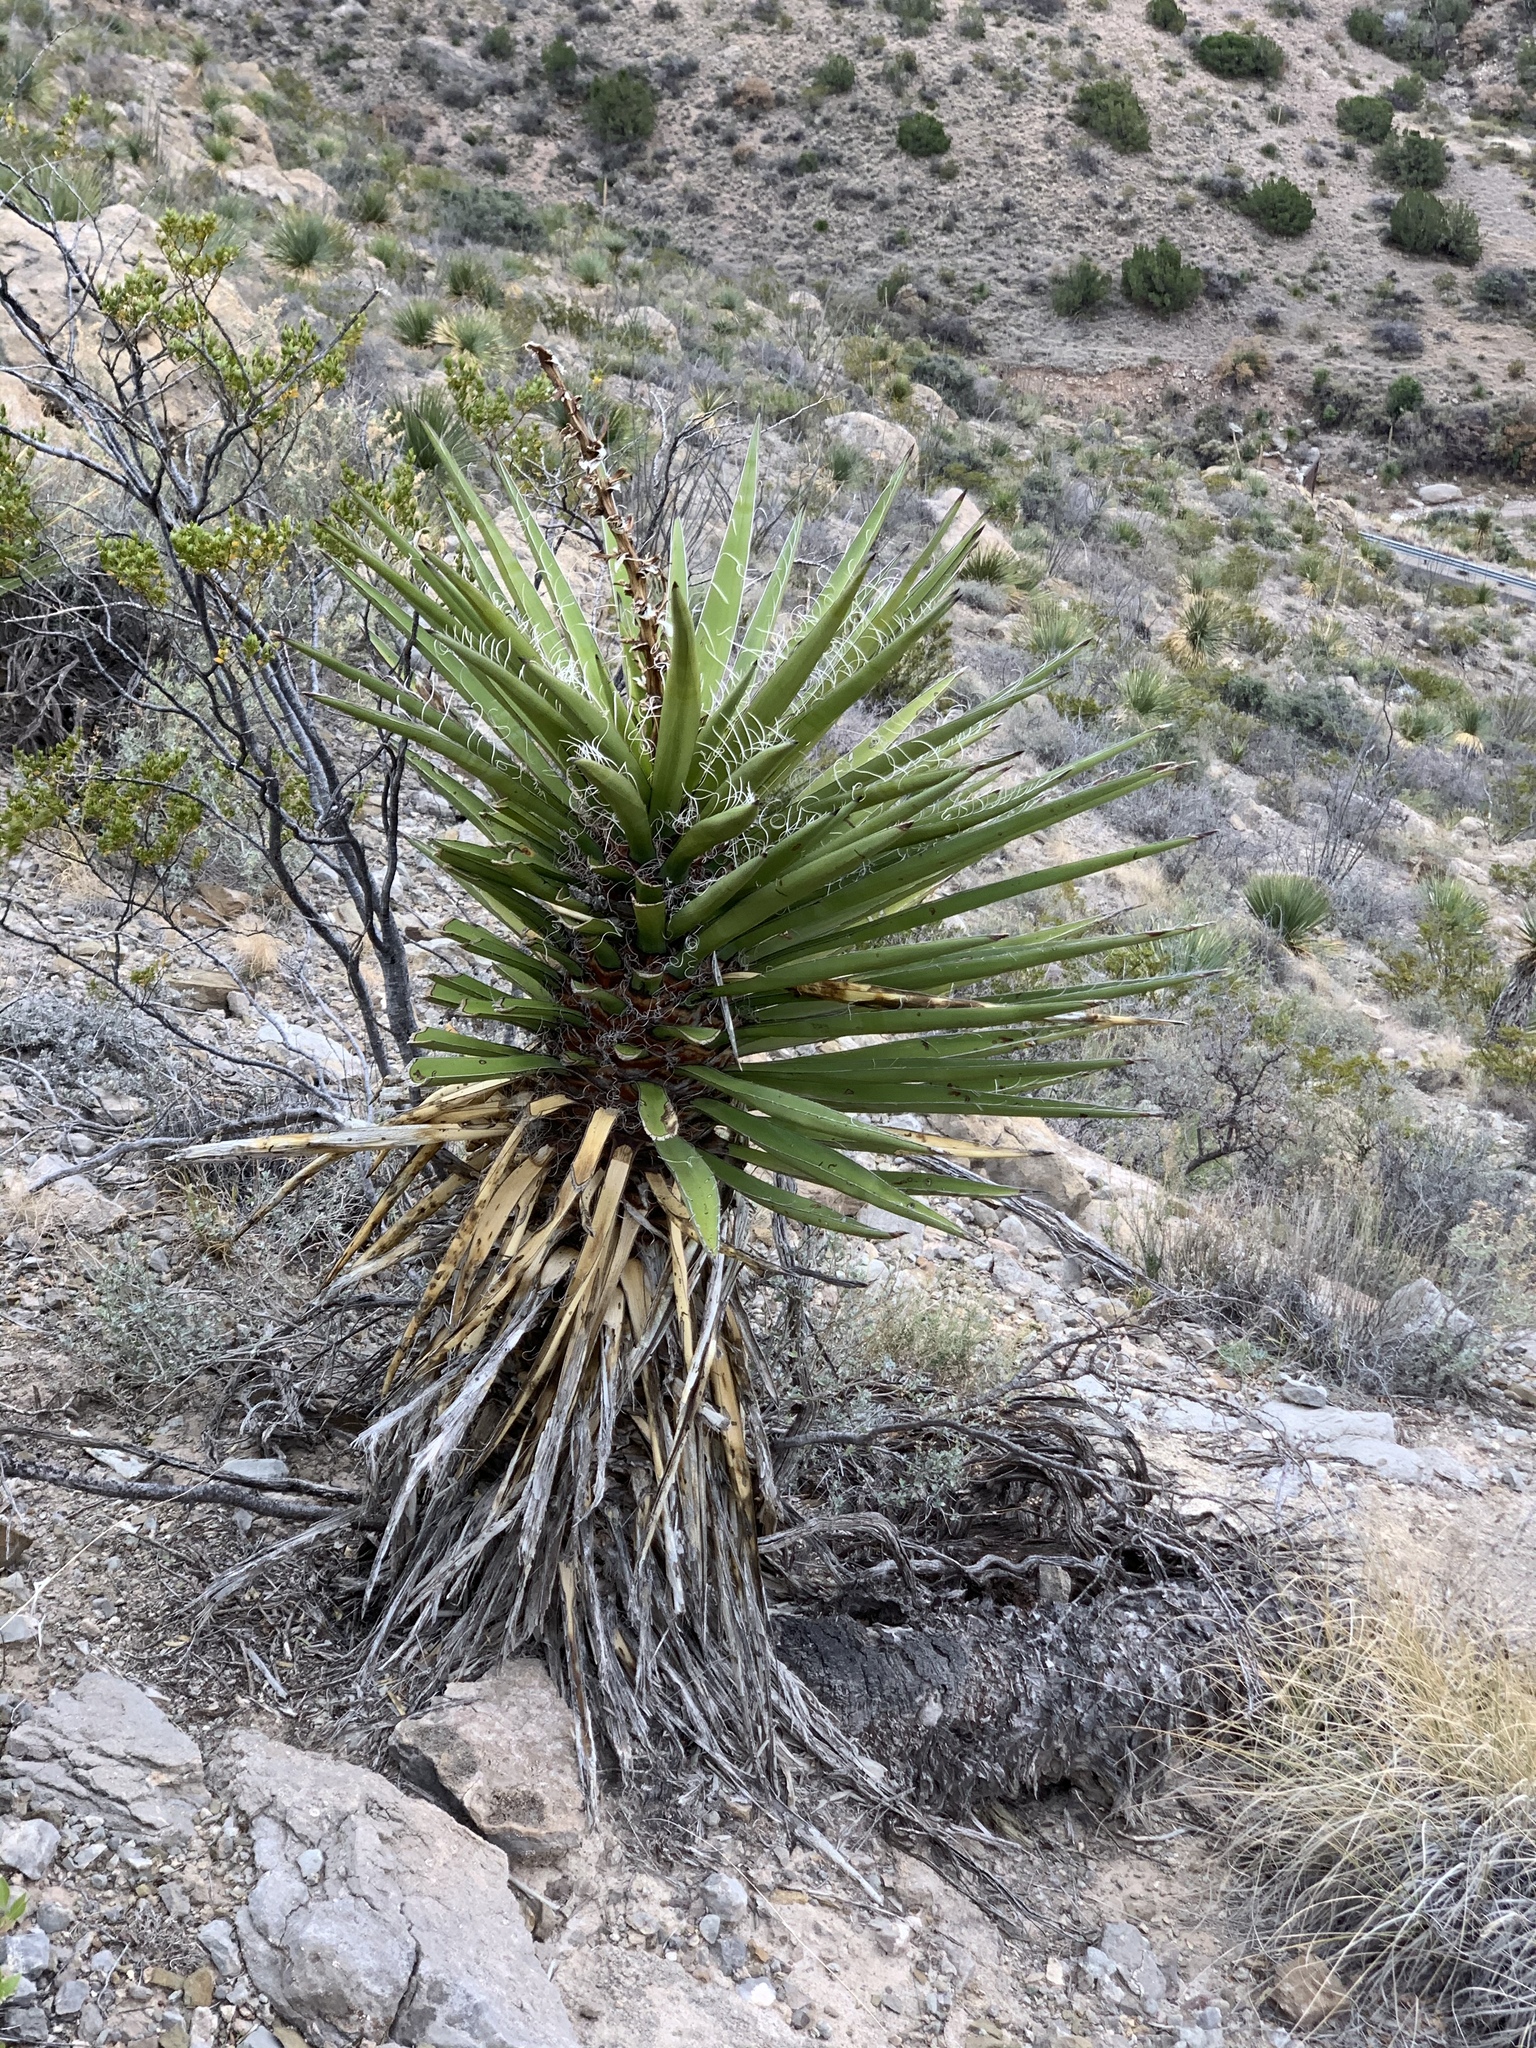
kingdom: Plantae
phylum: Tracheophyta
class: Liliopsida
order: Asparagales
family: Asparagaceae
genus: Yucca
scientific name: Yucca treculiana
